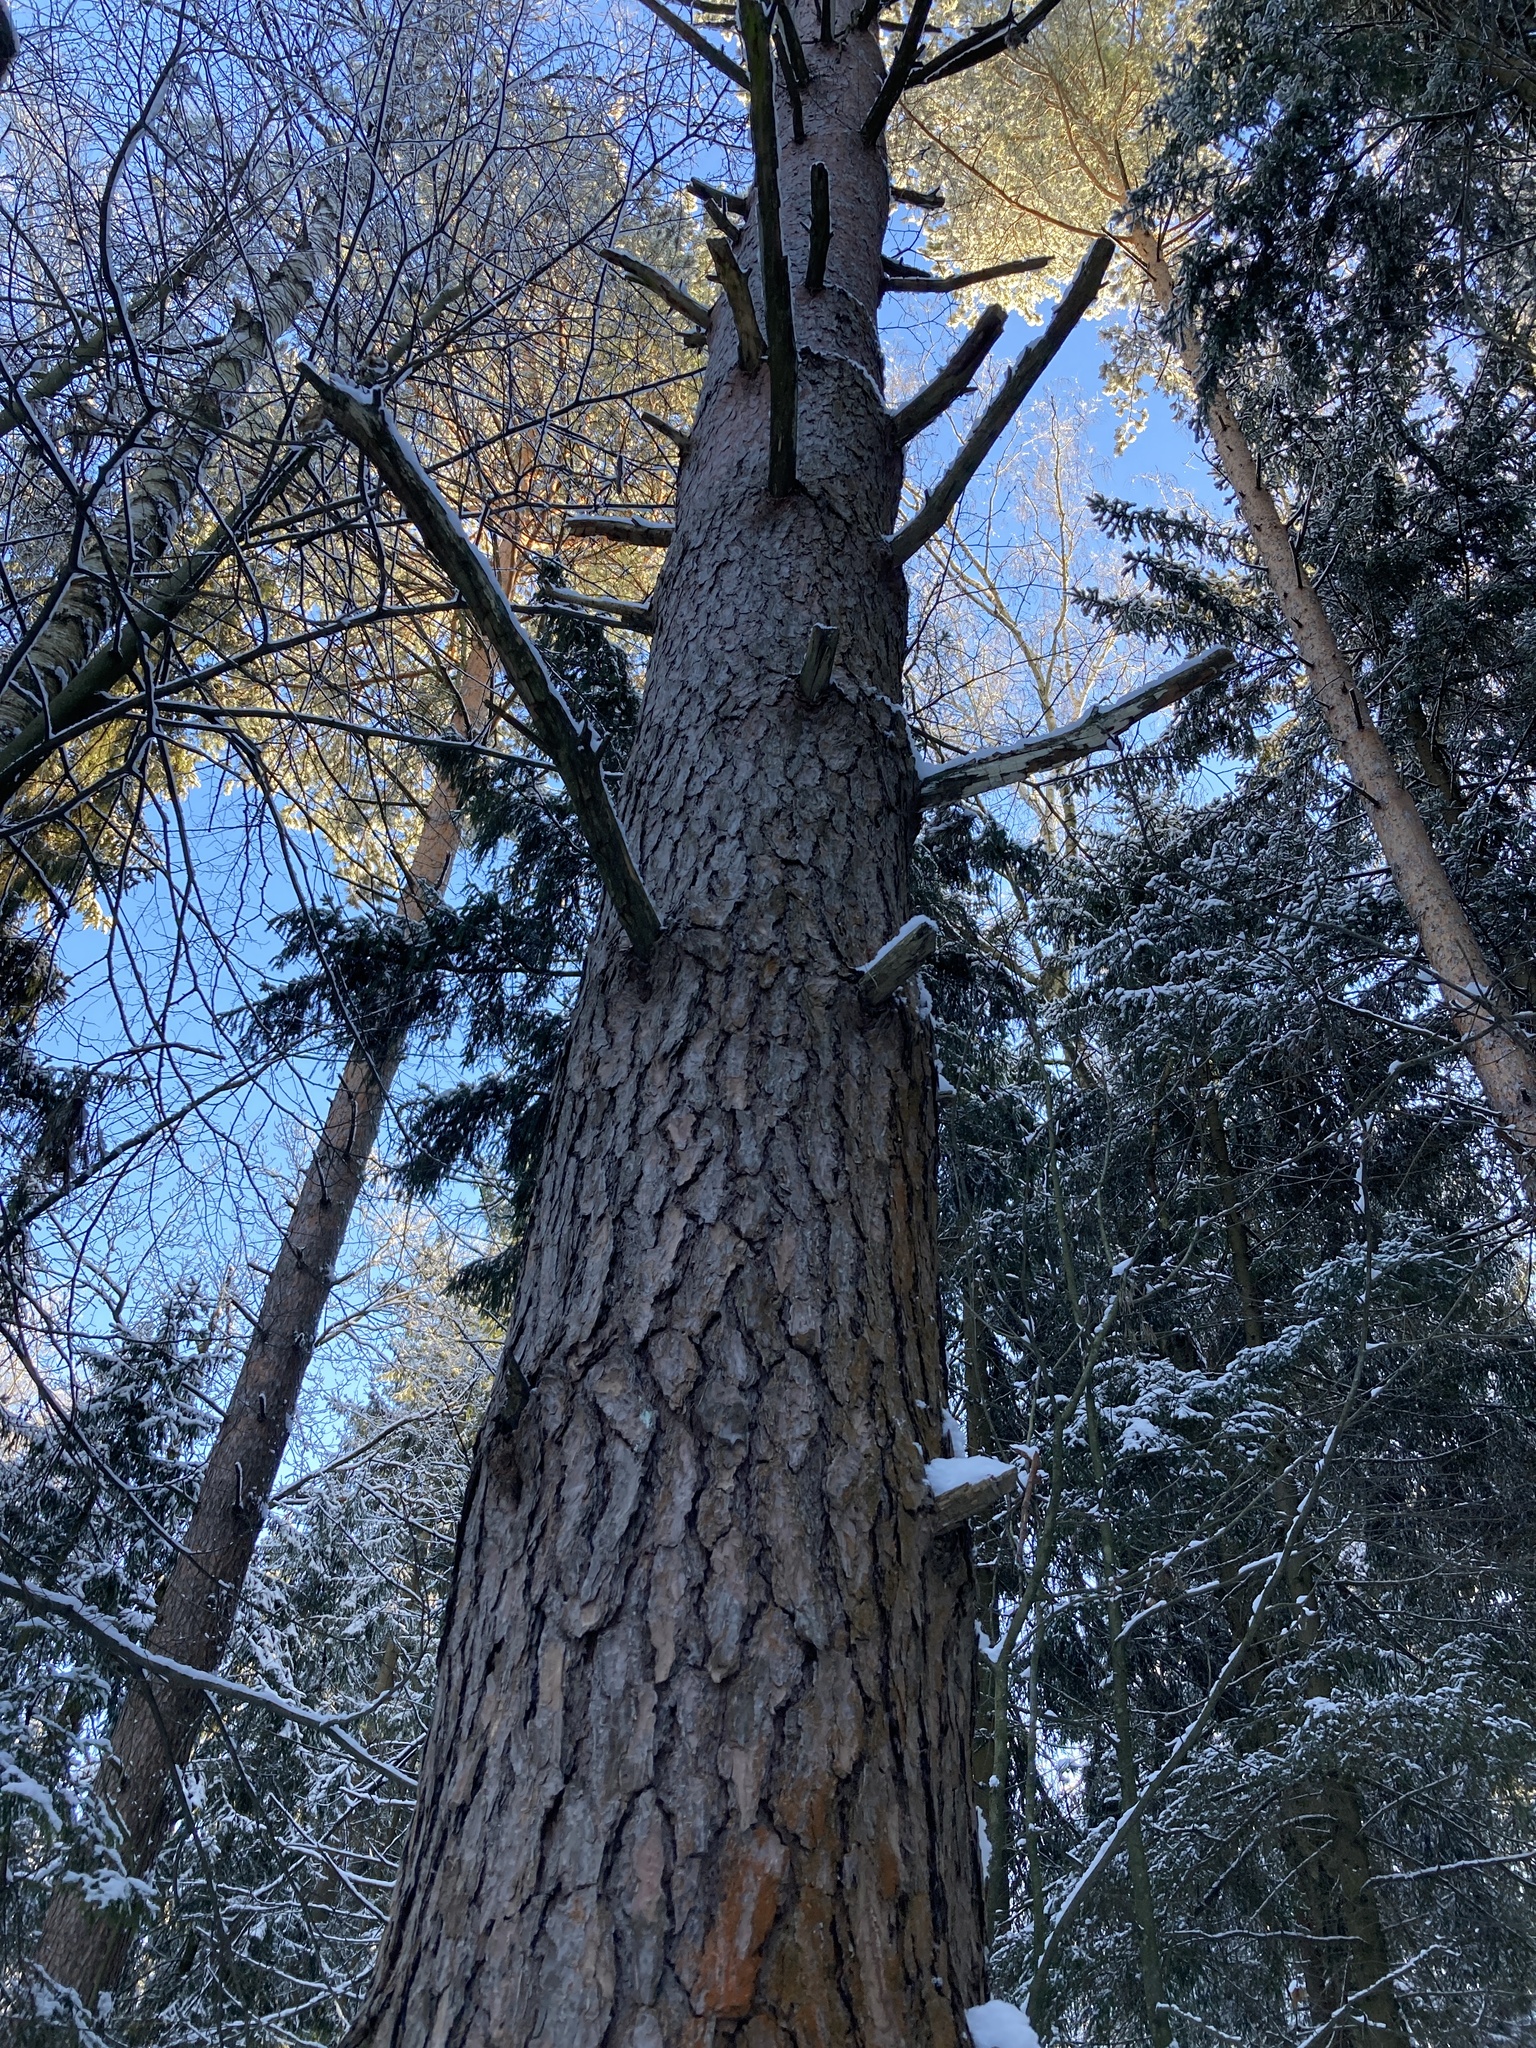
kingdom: Plantae
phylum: Tracheophyta
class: Pinopsida
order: Pinales
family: Pinaceae
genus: Pinus
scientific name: Pinus sylvestris
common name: Scots pine
